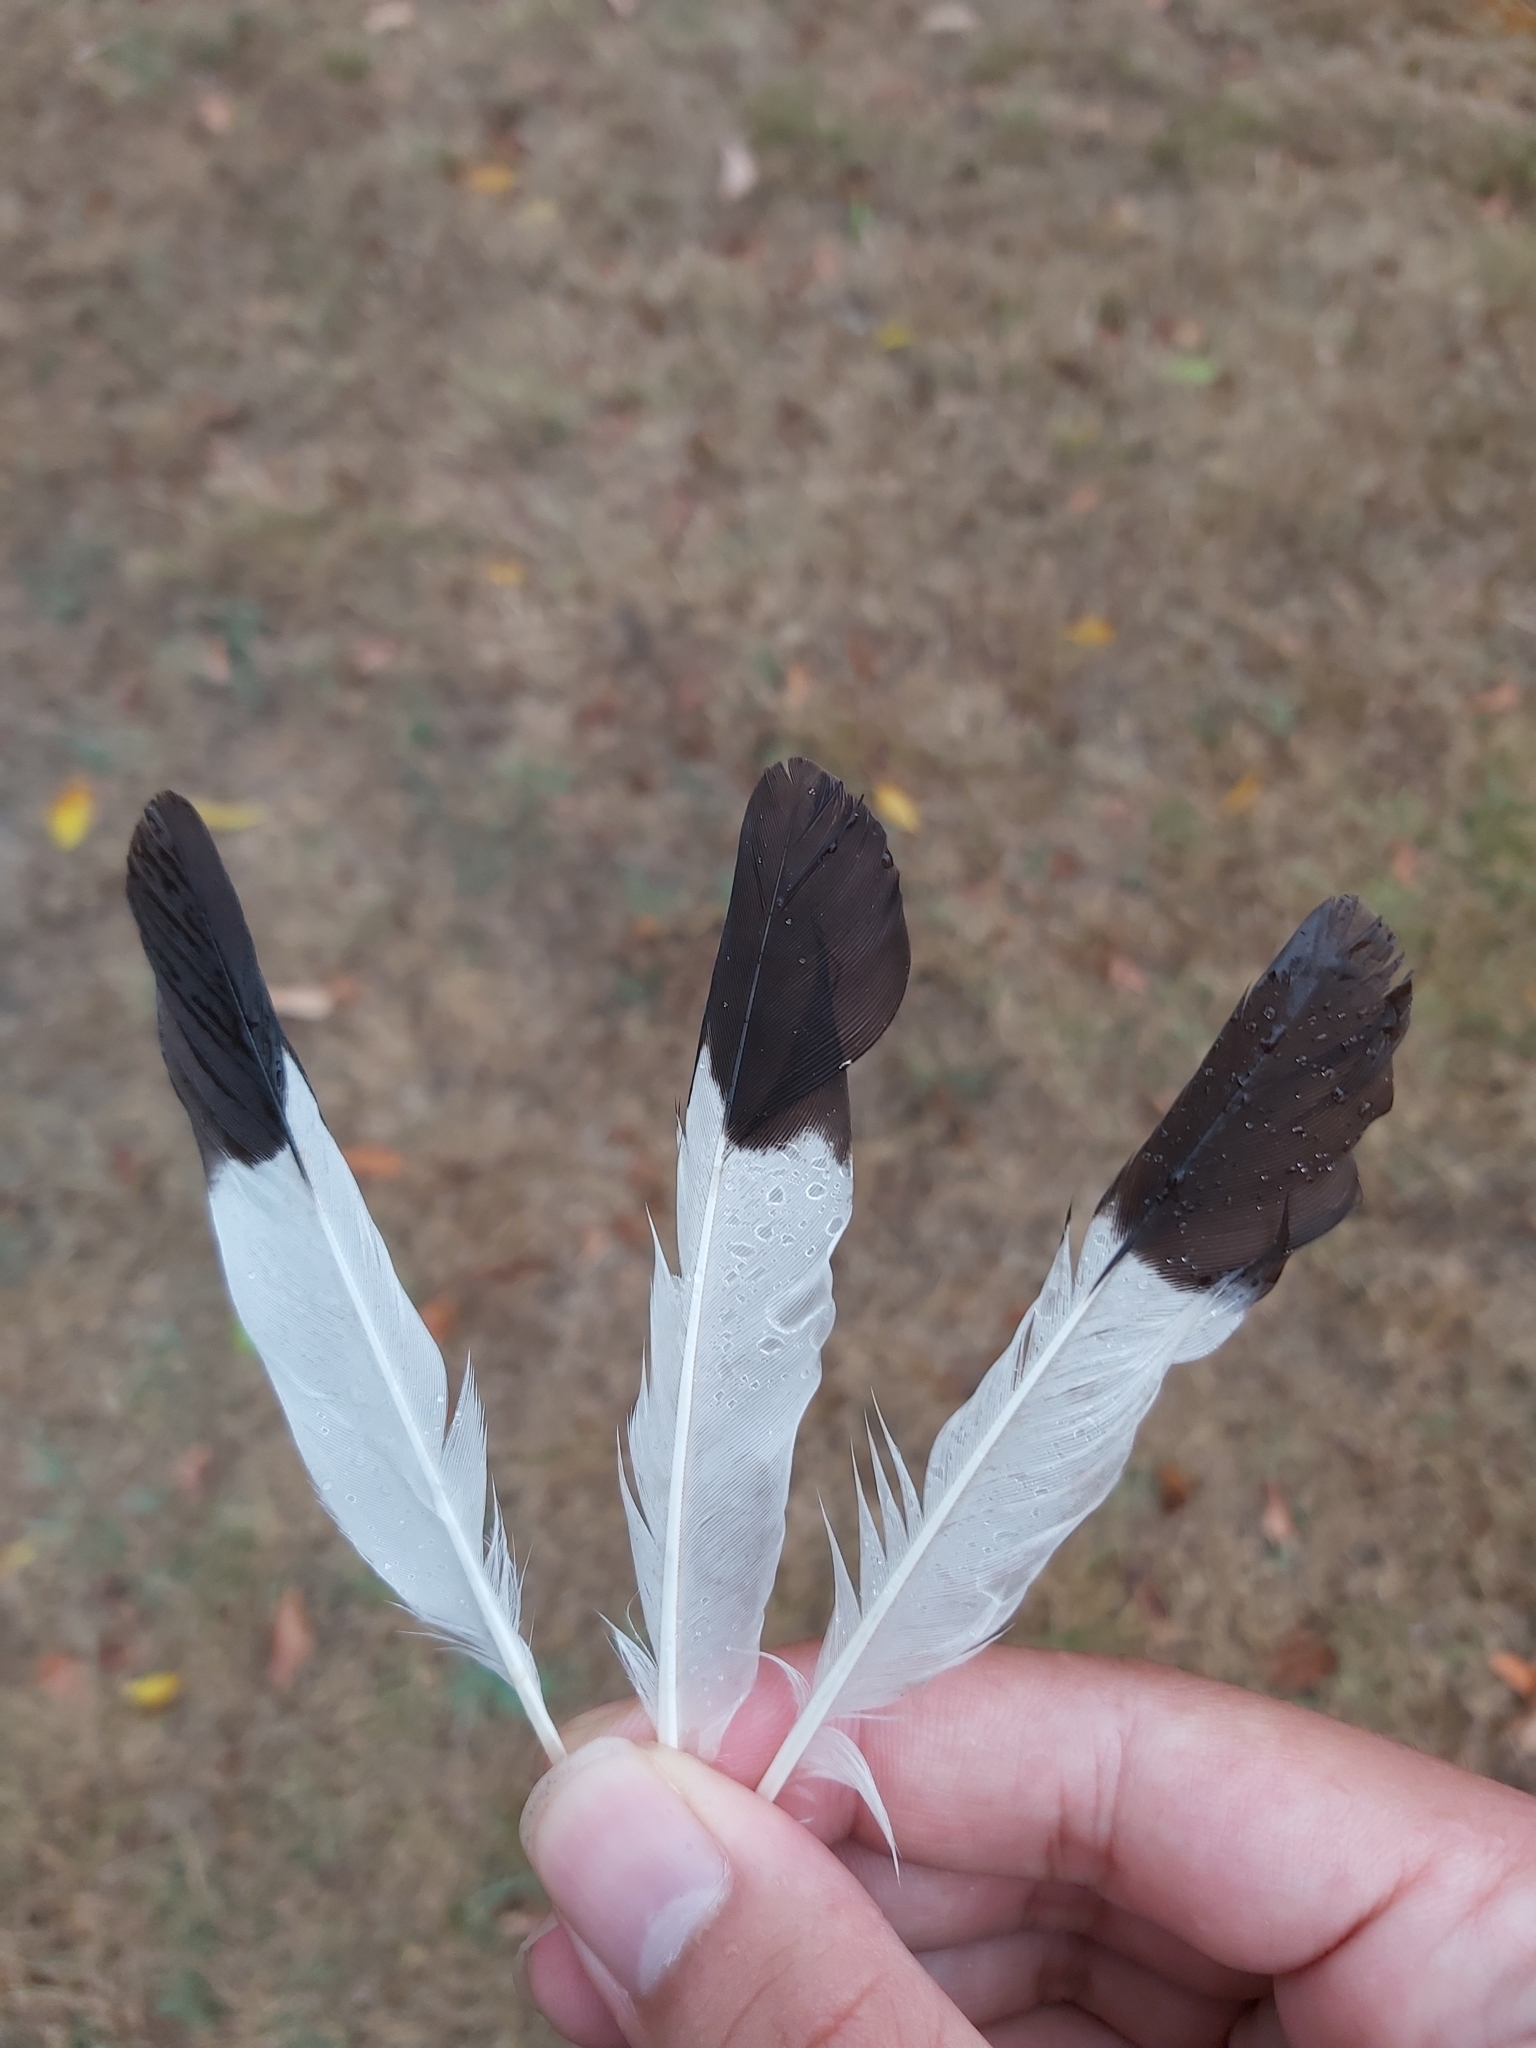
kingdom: Animalia
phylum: Chordata
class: Aves
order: Passeriformes
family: Sturnidae
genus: Acridotheres
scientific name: Acridotheres tristis
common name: Common myna
